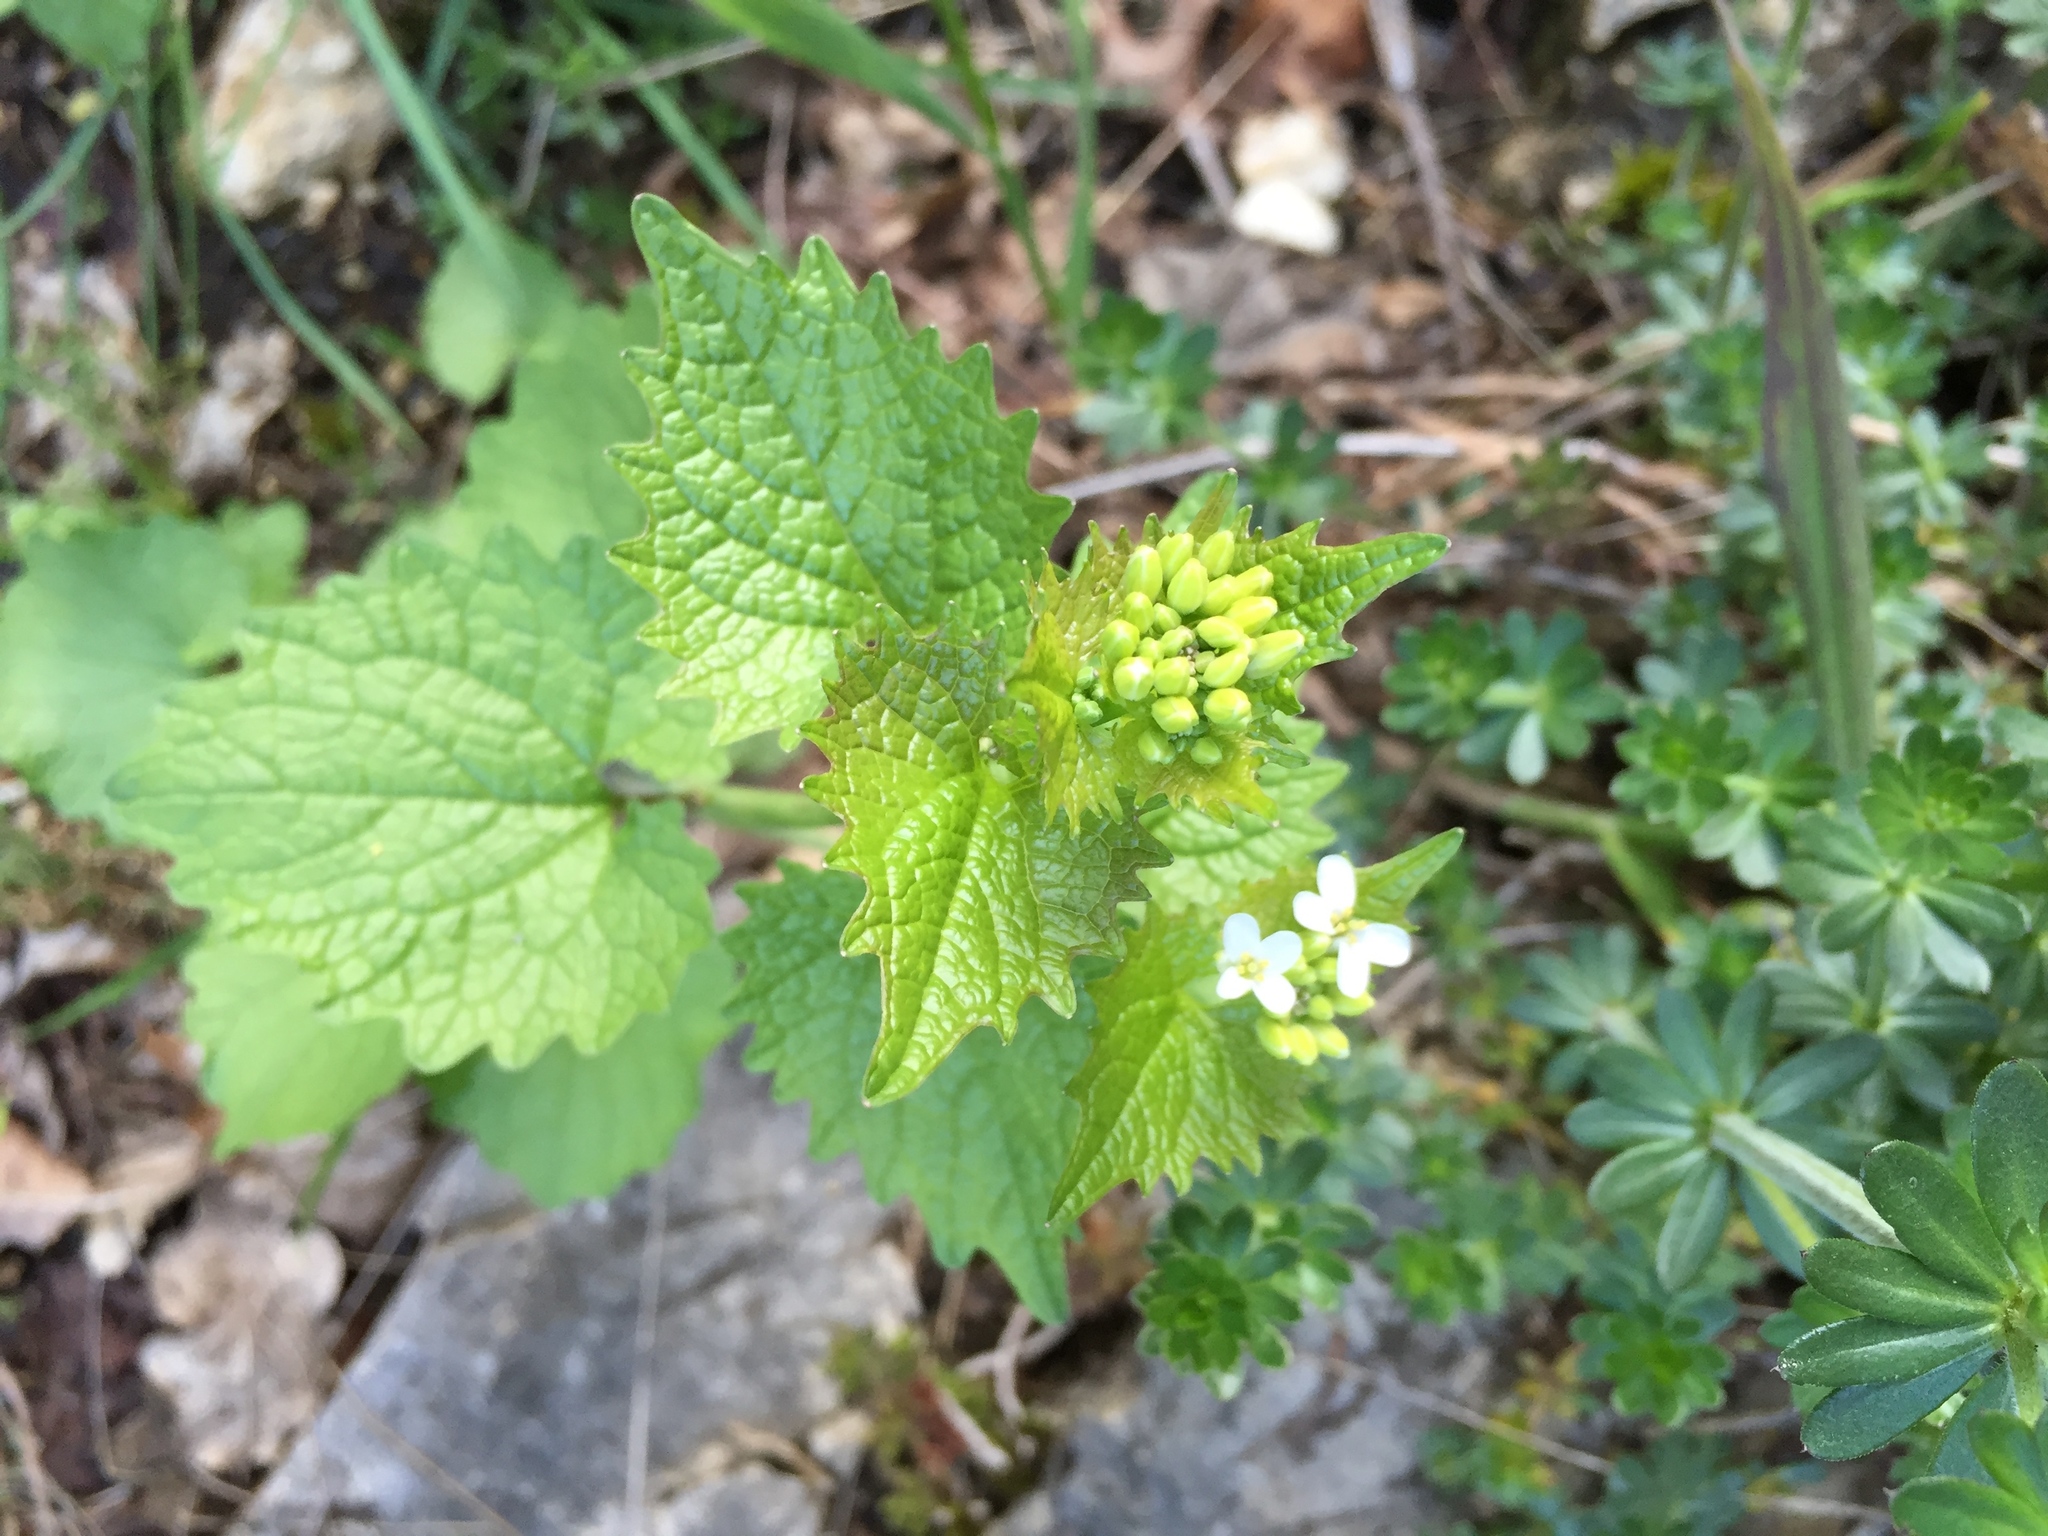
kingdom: Plantae
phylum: Tracheophyta
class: Magnoliopsida
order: Brassicales
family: Brassicaceae
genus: Alliaria
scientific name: Alliaria petiolata
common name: Garlic mustard
